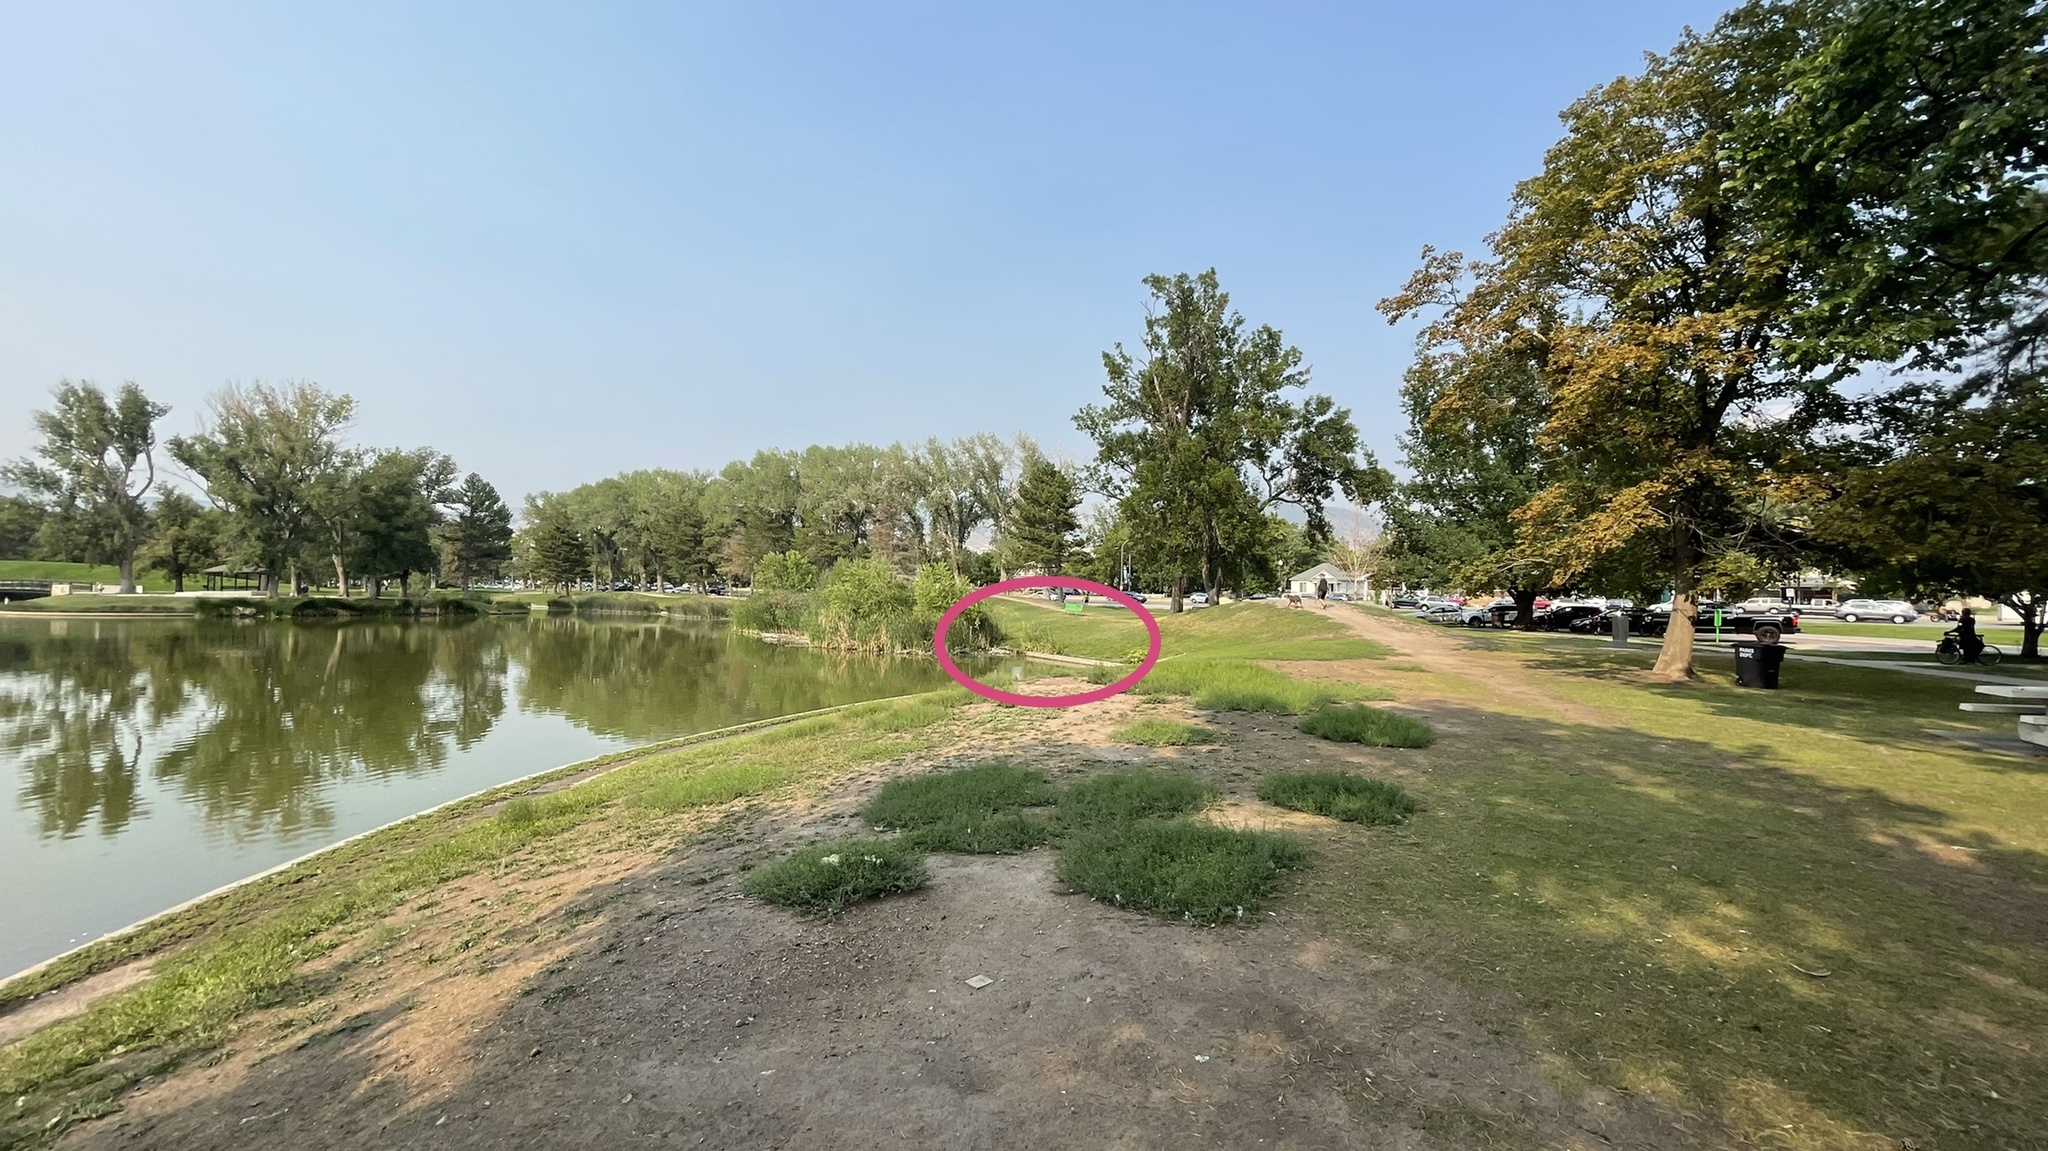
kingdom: Plantae
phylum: Tracheophyta
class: Magnoliopsida
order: Gentianales
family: Apocynaceae
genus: Asclepias
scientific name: Asclepias incarnata
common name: Swamp milkweed
